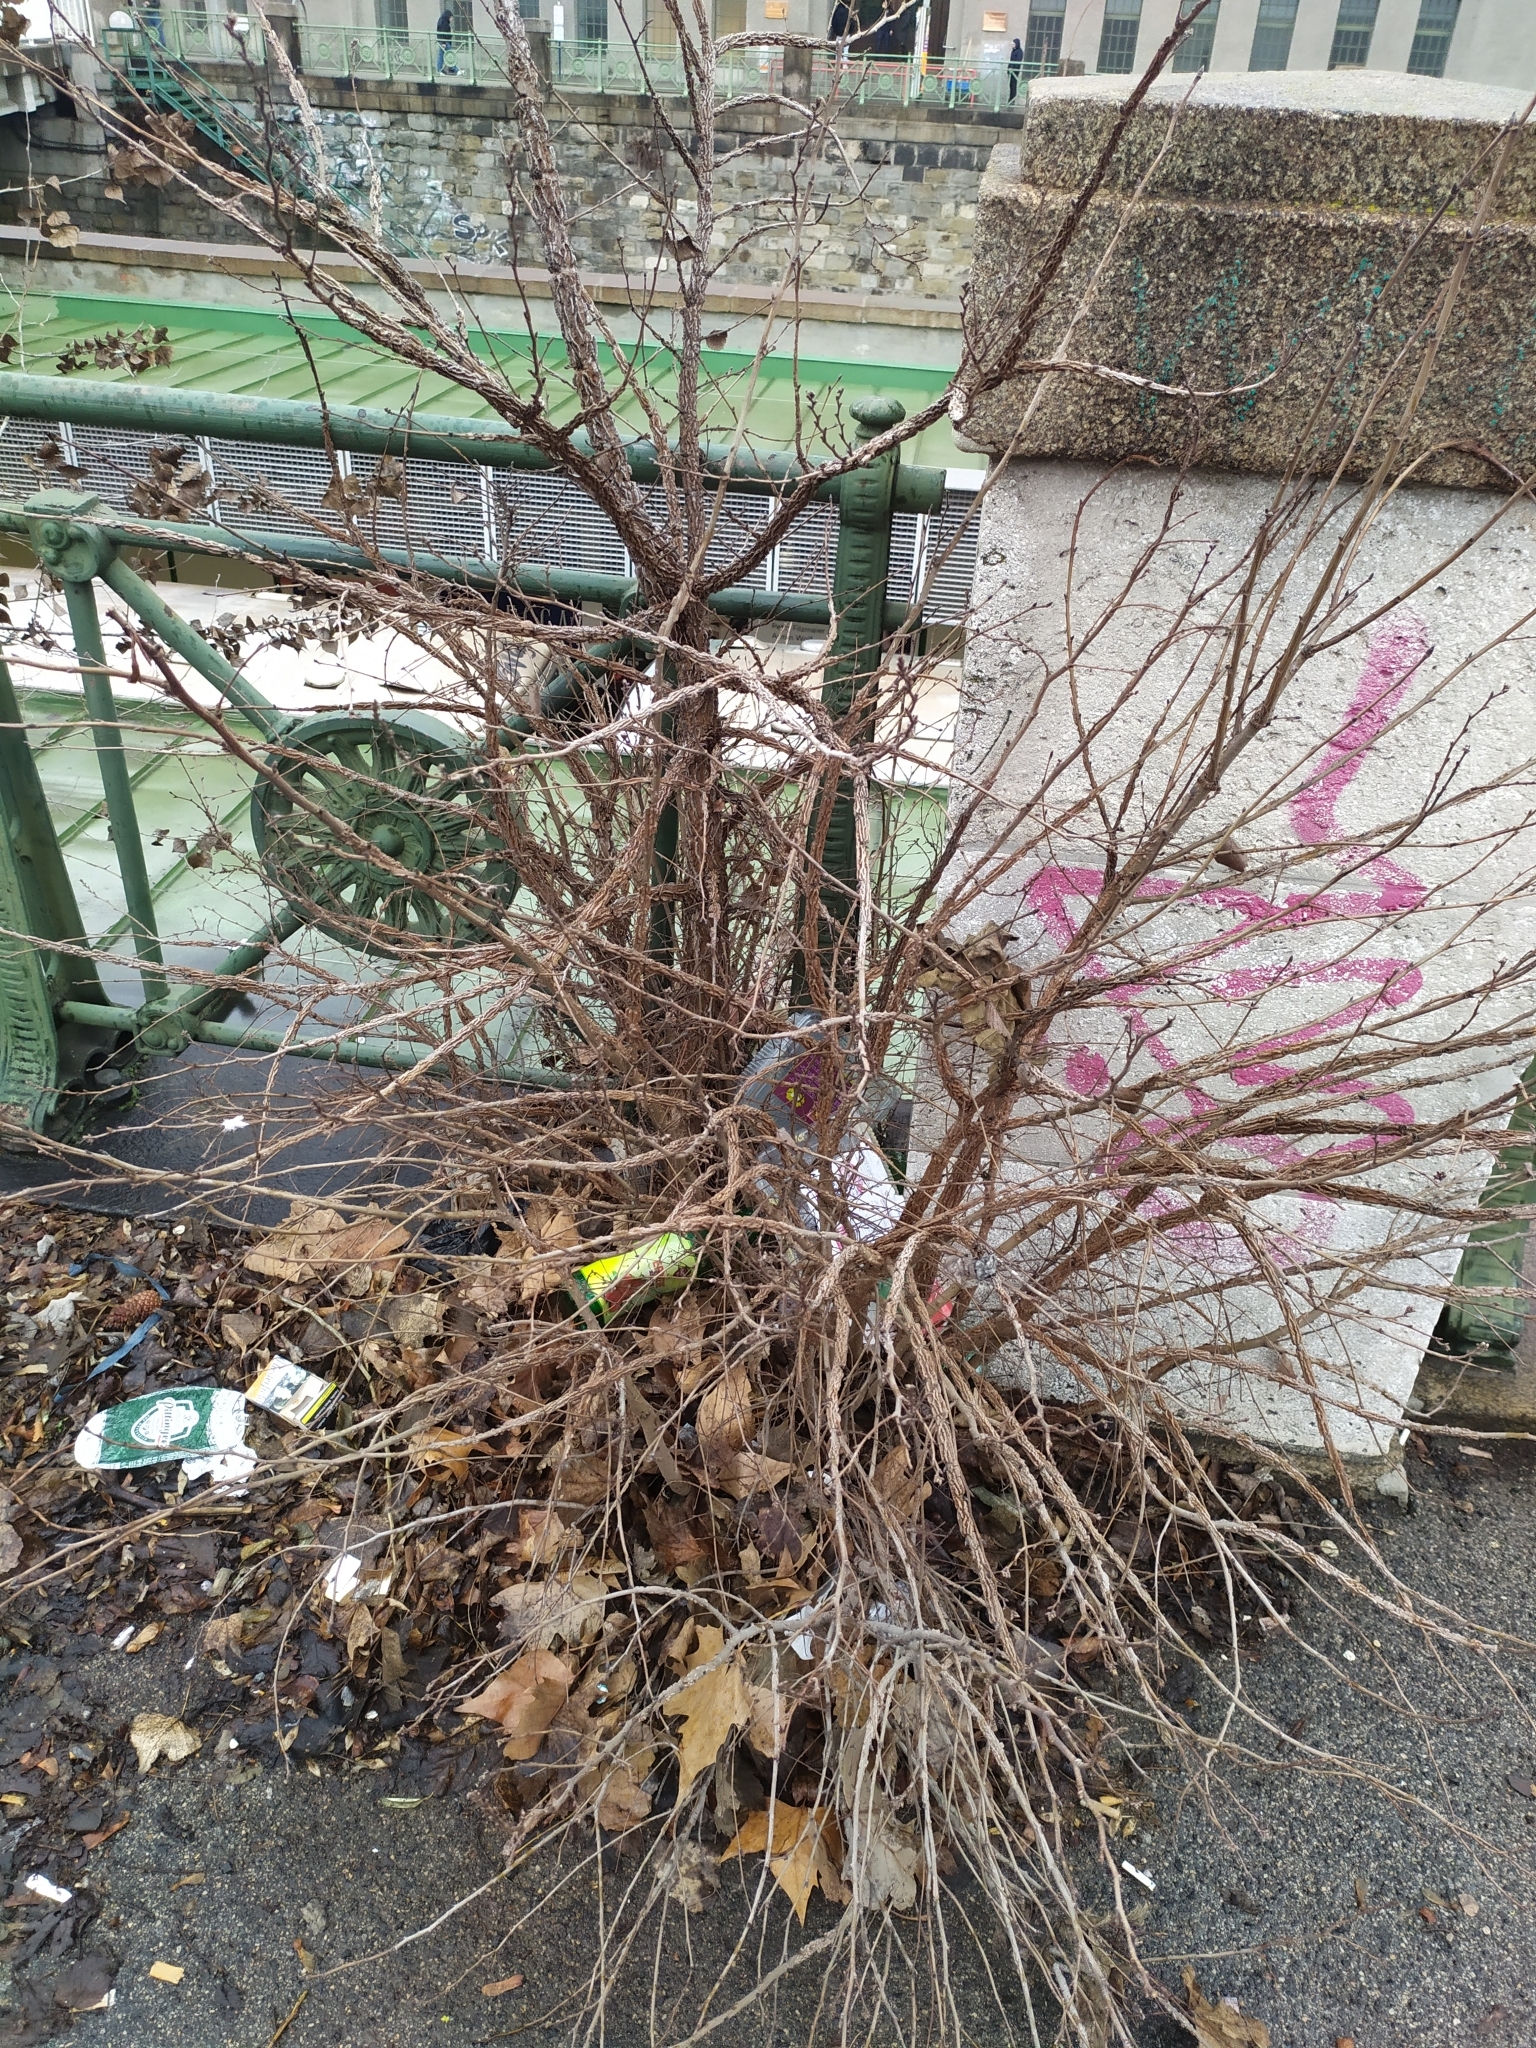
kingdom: Plantae
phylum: Tracheophyta
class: Magnoliopsida
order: Rosales
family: Ulmaceae
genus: Ulmus
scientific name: Ulmus minor
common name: Small-leaved elm
